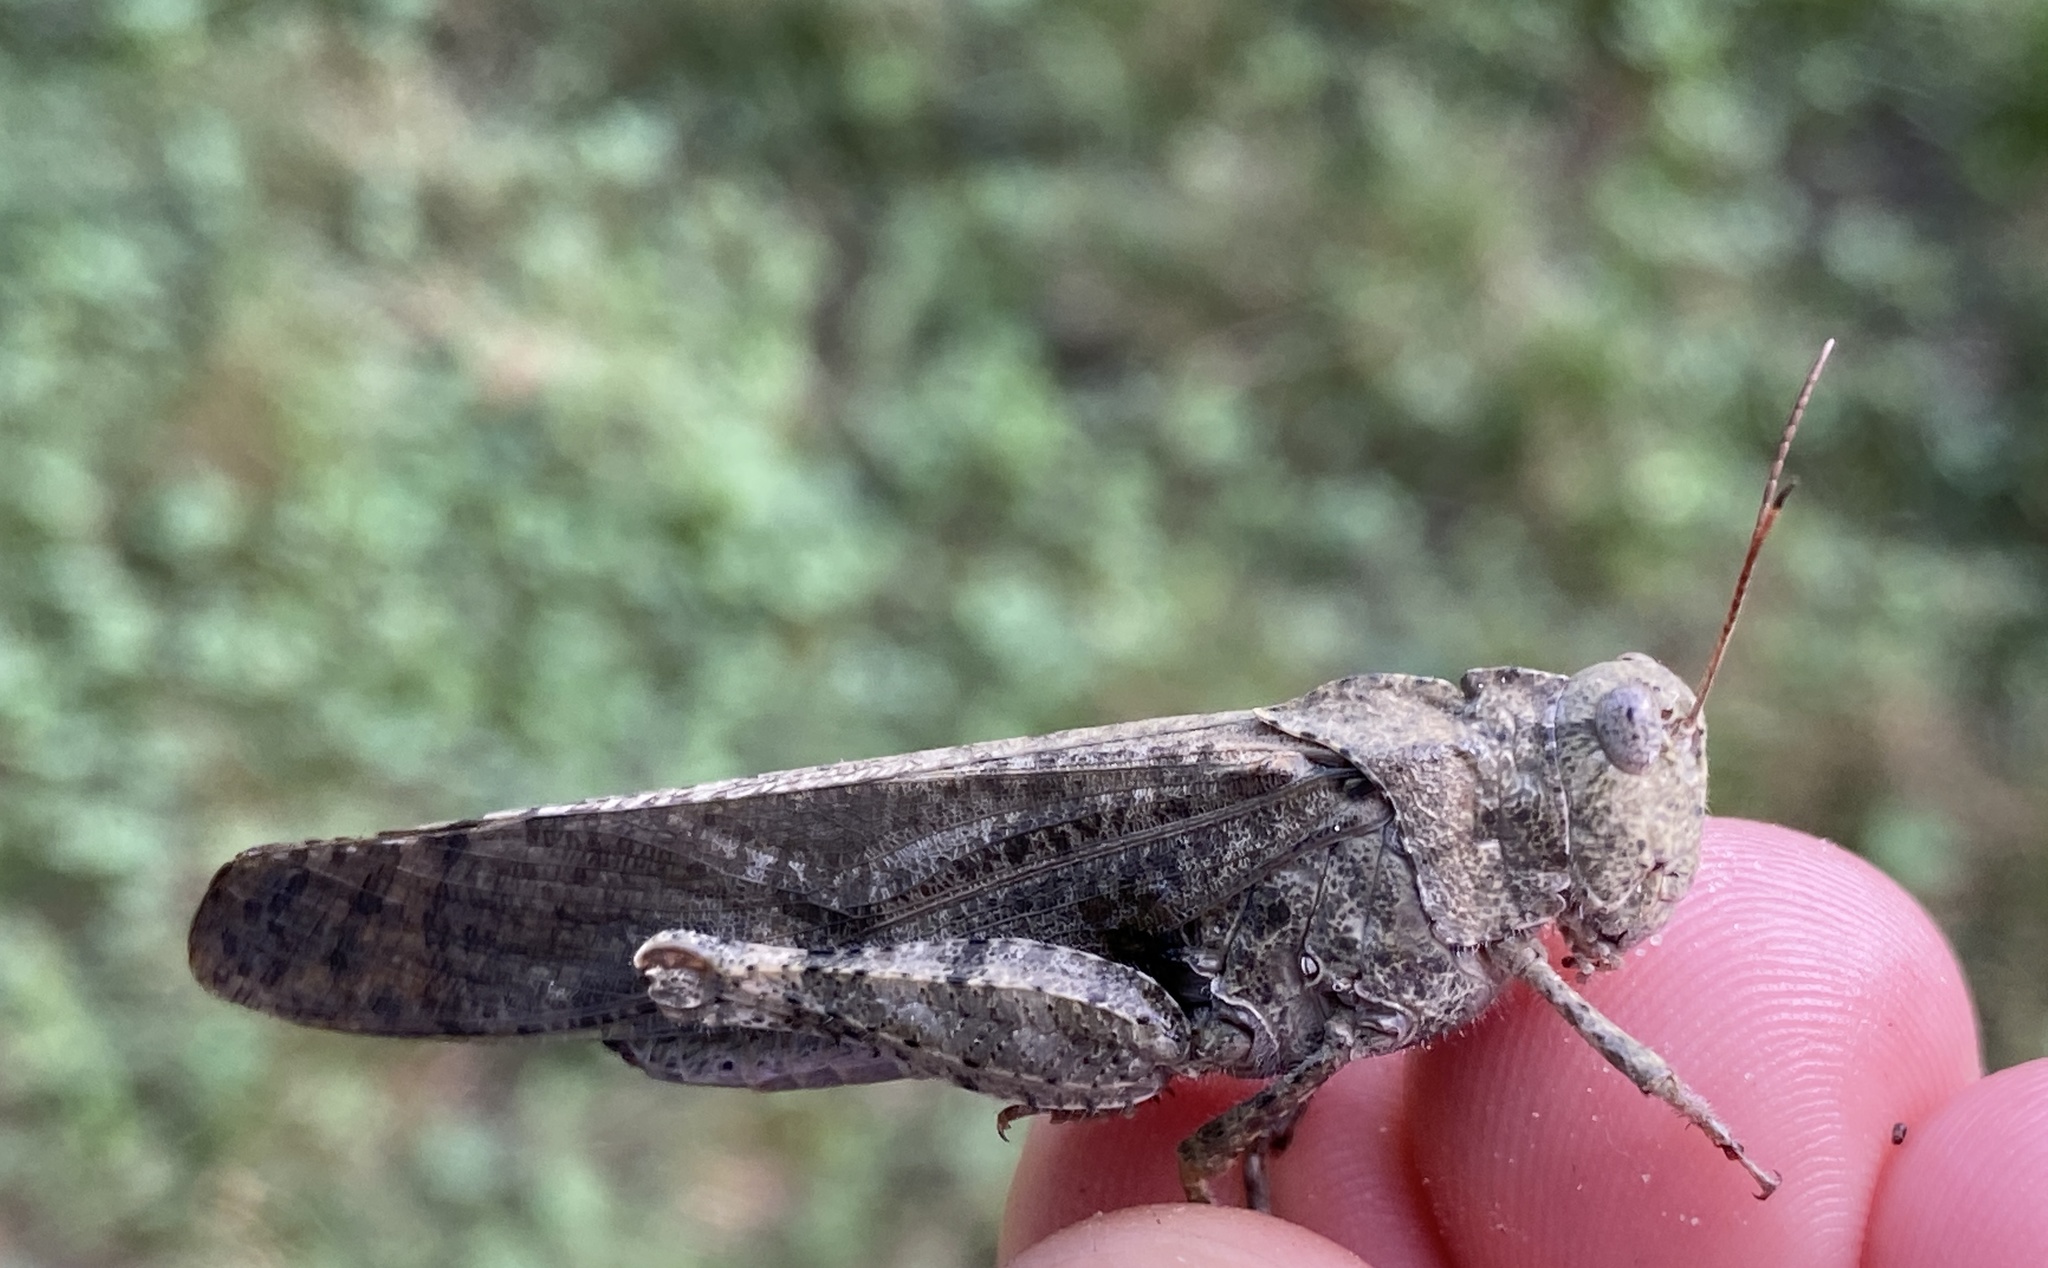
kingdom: Animalia
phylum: Arthropoda
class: Insecta
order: Orthoptera
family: Acrididae
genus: Dissosteira
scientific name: Dissosteira carolina
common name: Carolina grasshopper
